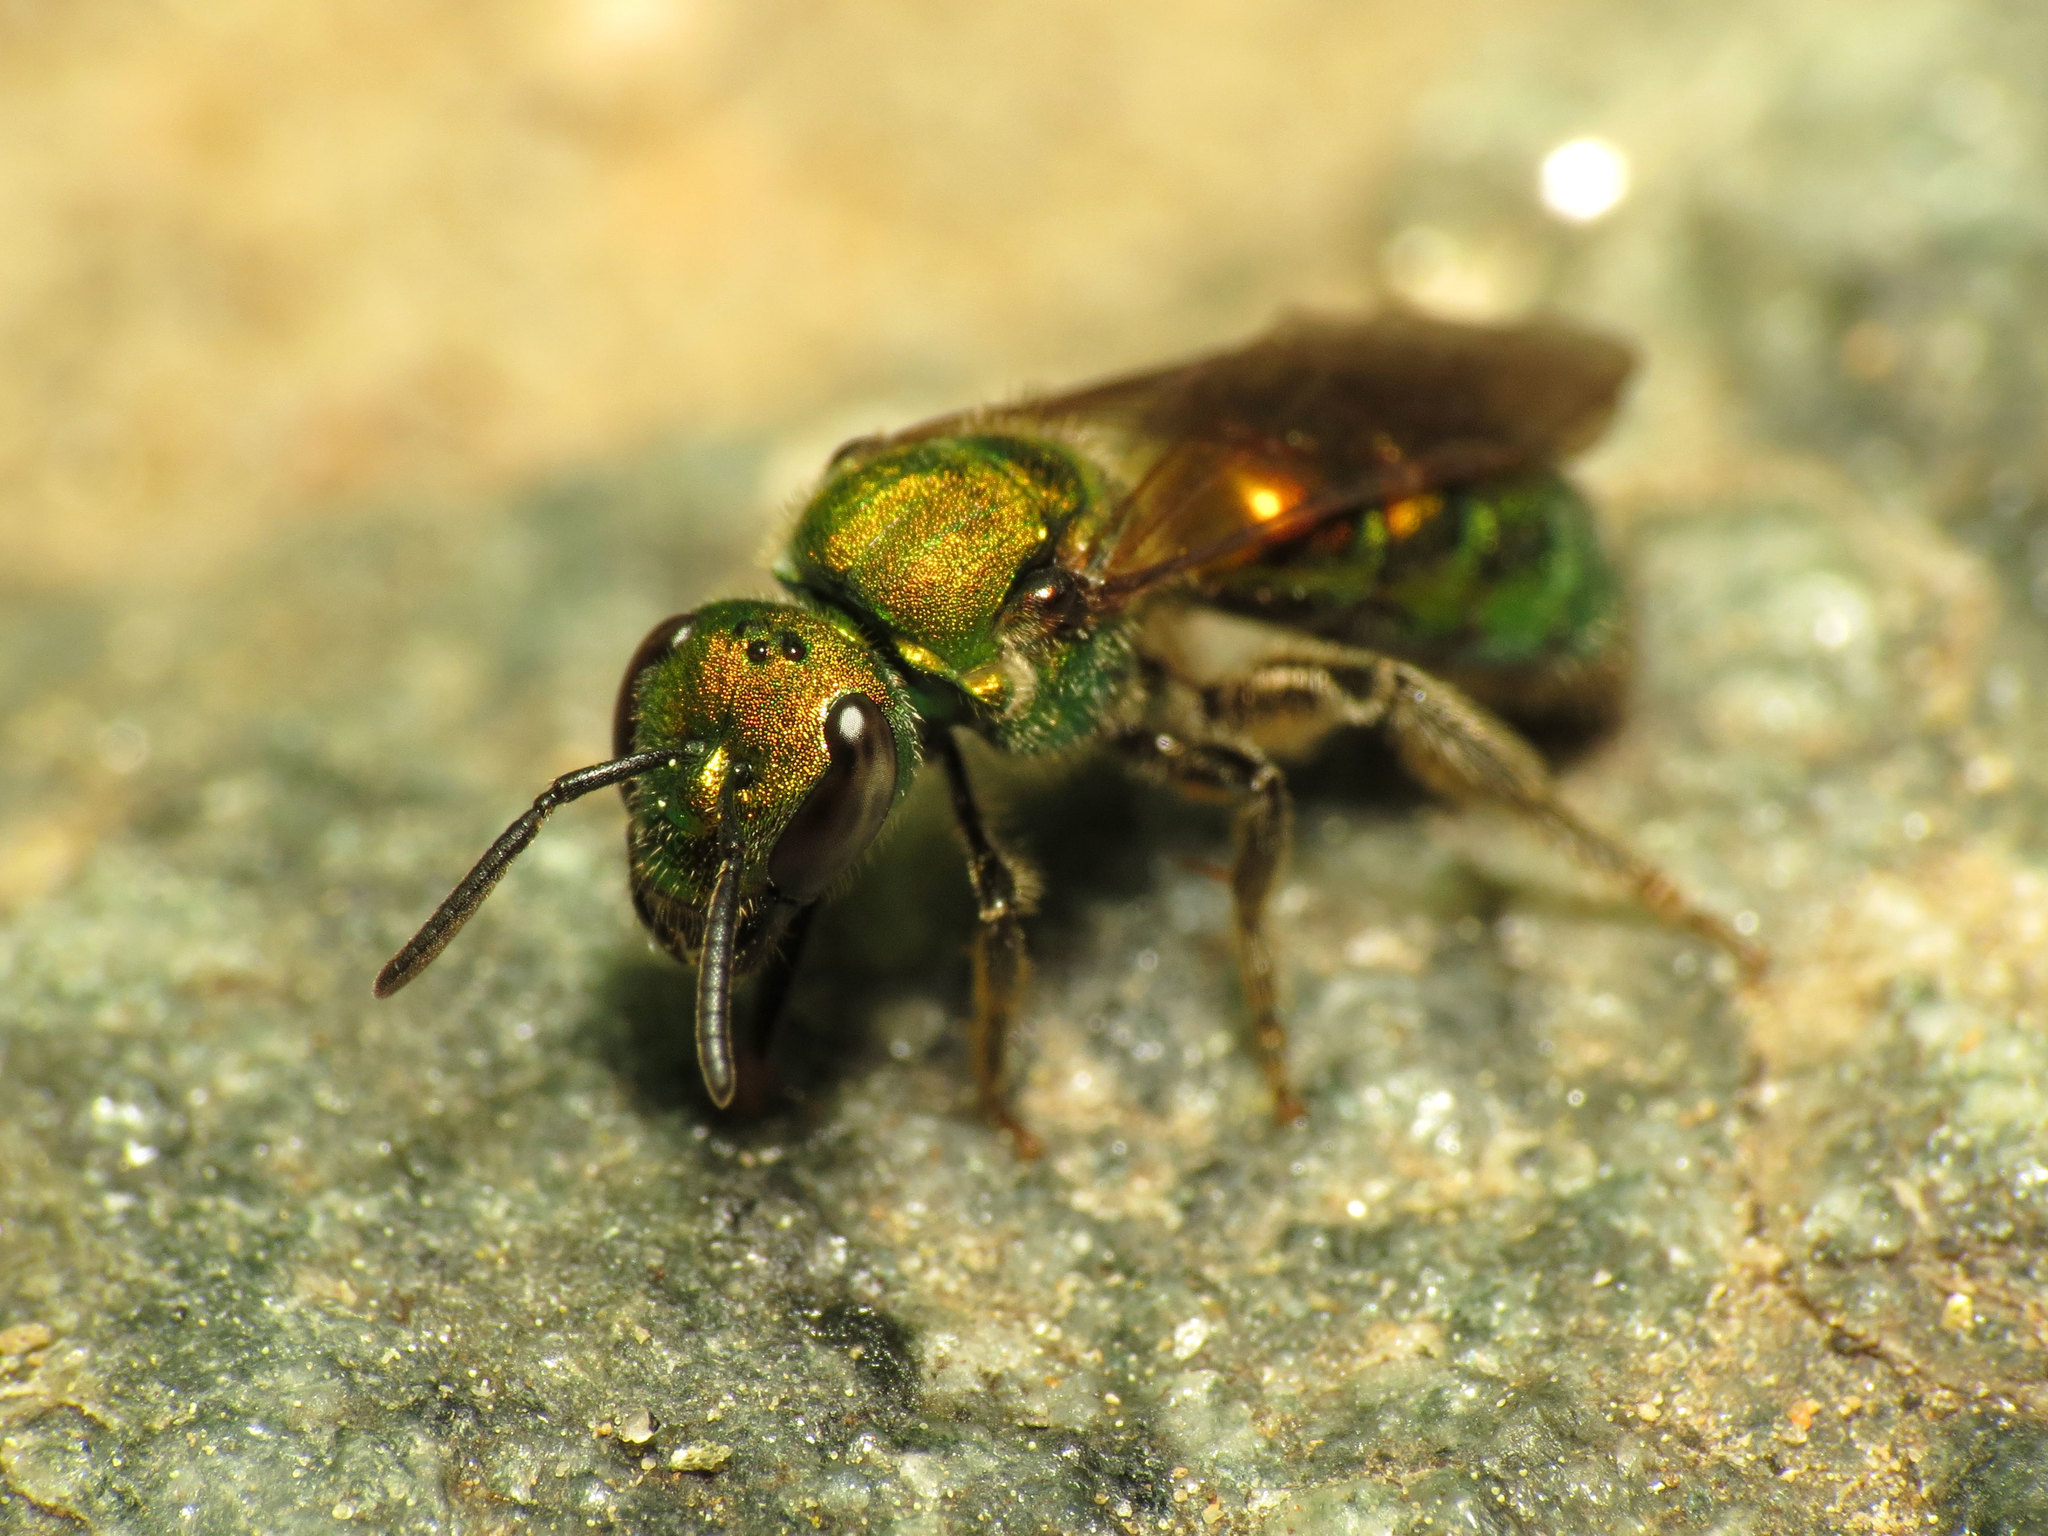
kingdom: Animalia
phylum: Arthropoda
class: Insecta
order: Hymenoptera
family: Halictidae
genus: Augochlora
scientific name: Augochlora pura
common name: Pure green sweat bee
